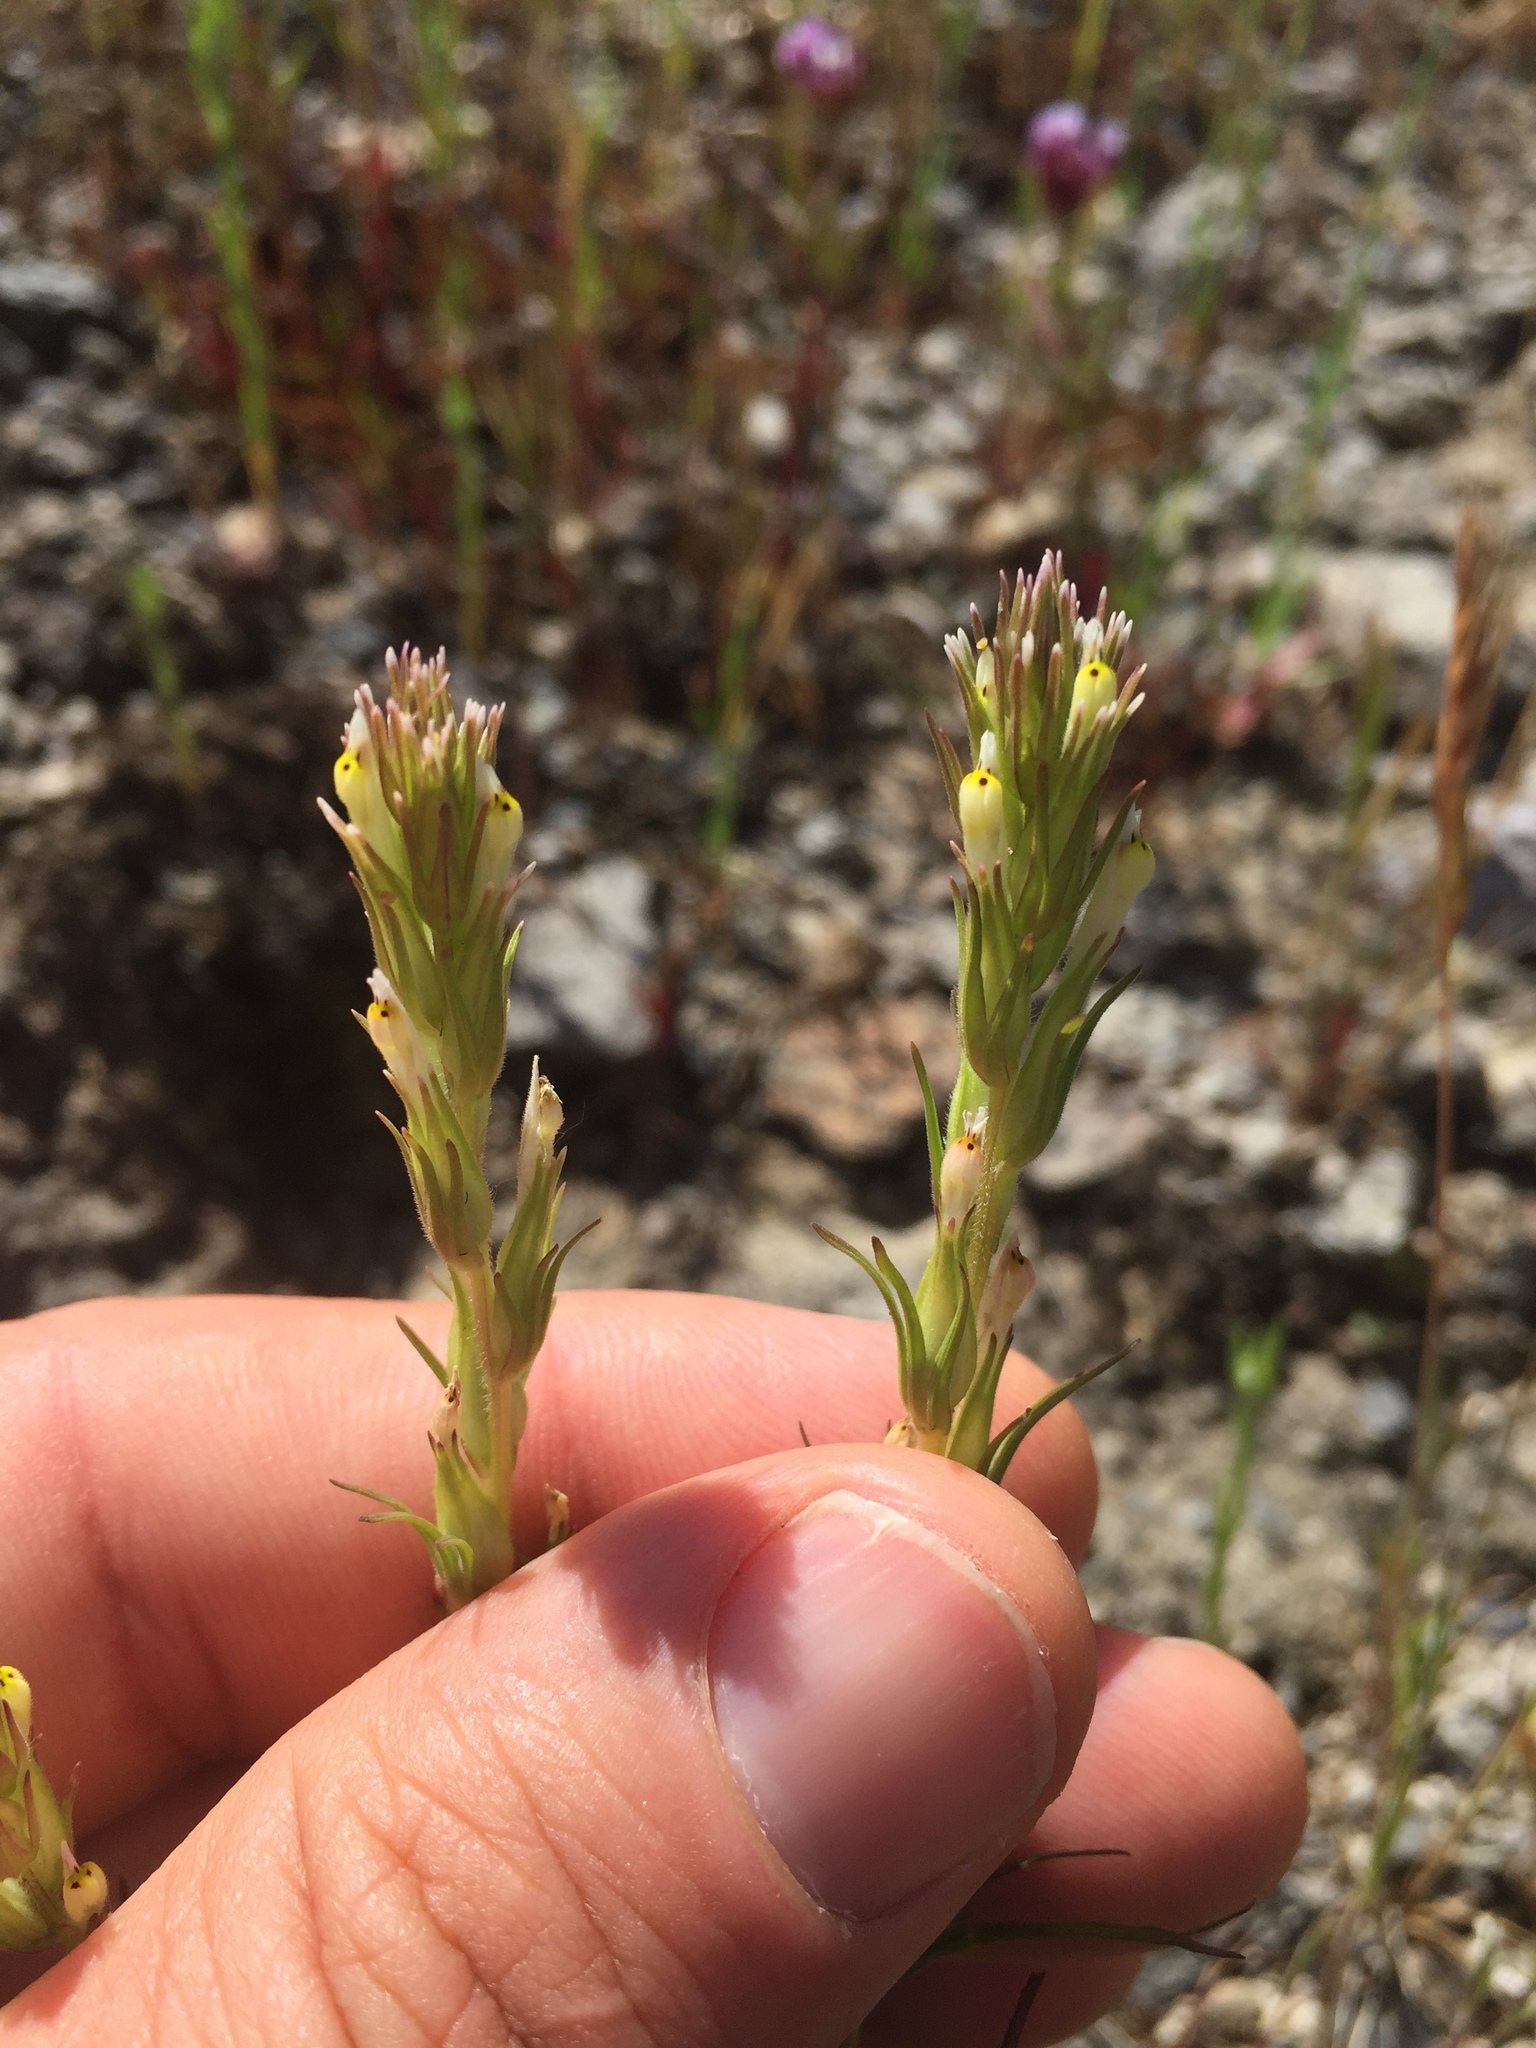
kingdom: Plantae
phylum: Tracheophyta
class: Magnoliopsida
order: Lamiales
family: Orobanchaceae
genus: Castilleja
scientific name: Castilleja attenuata
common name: Valley tassels
